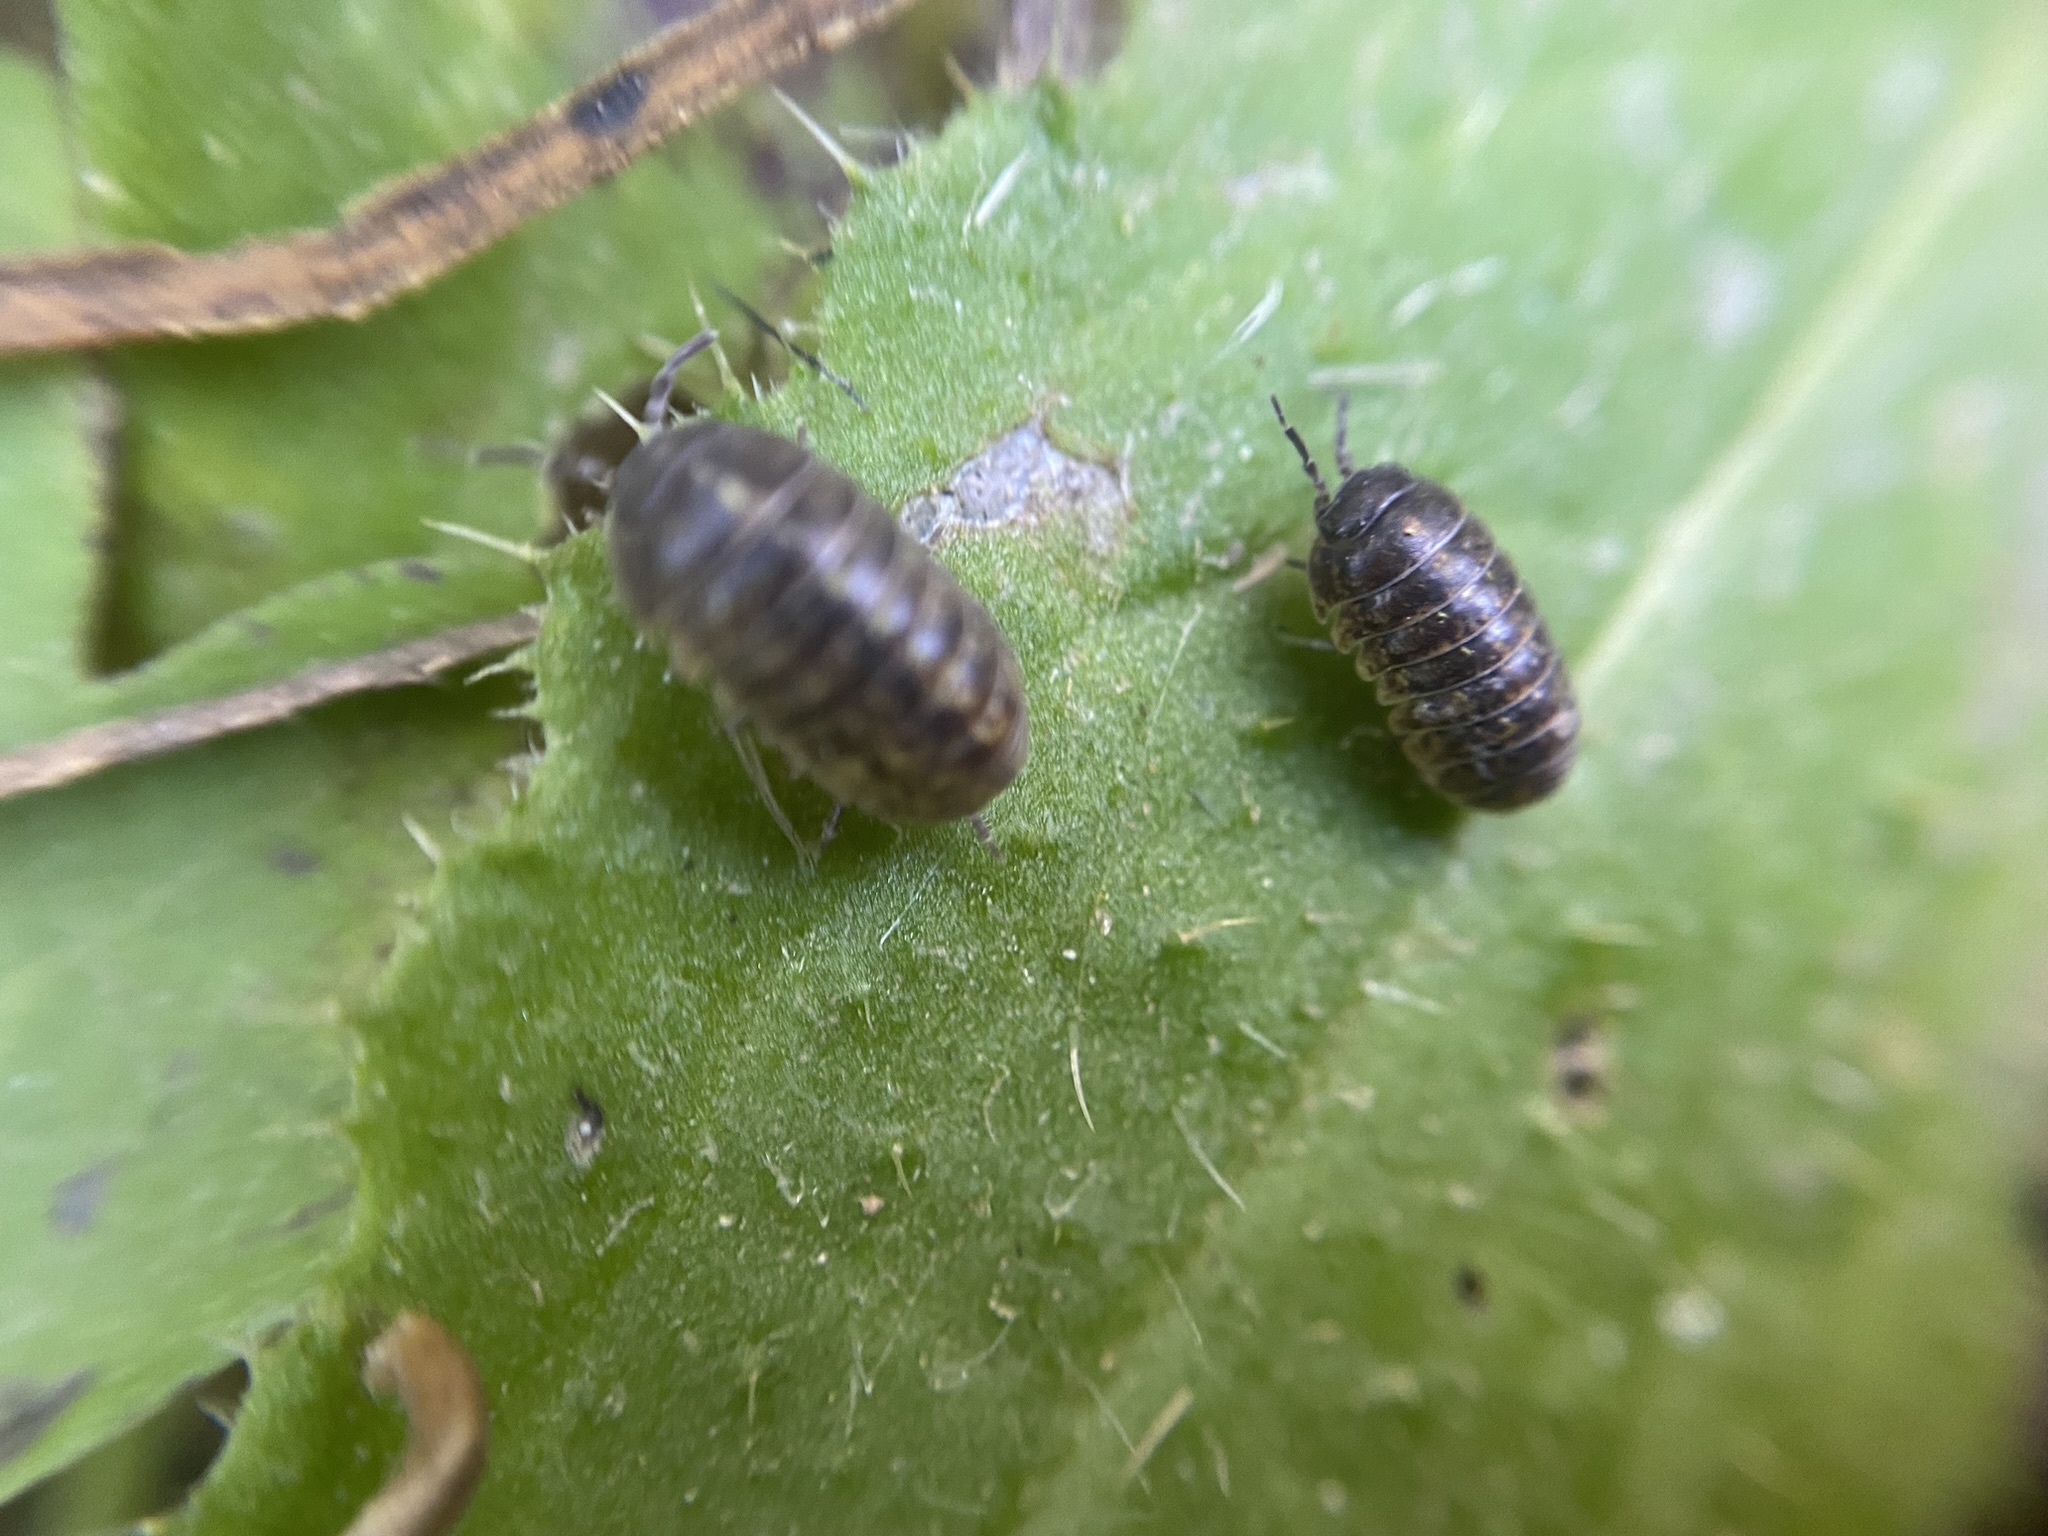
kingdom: Animalia
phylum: Arthropoda
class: Malacostraca
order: Isopoda
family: Armadillidiidae
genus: Armadillidium
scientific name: Armadillidium vulgare
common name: Common pill woodlouse
